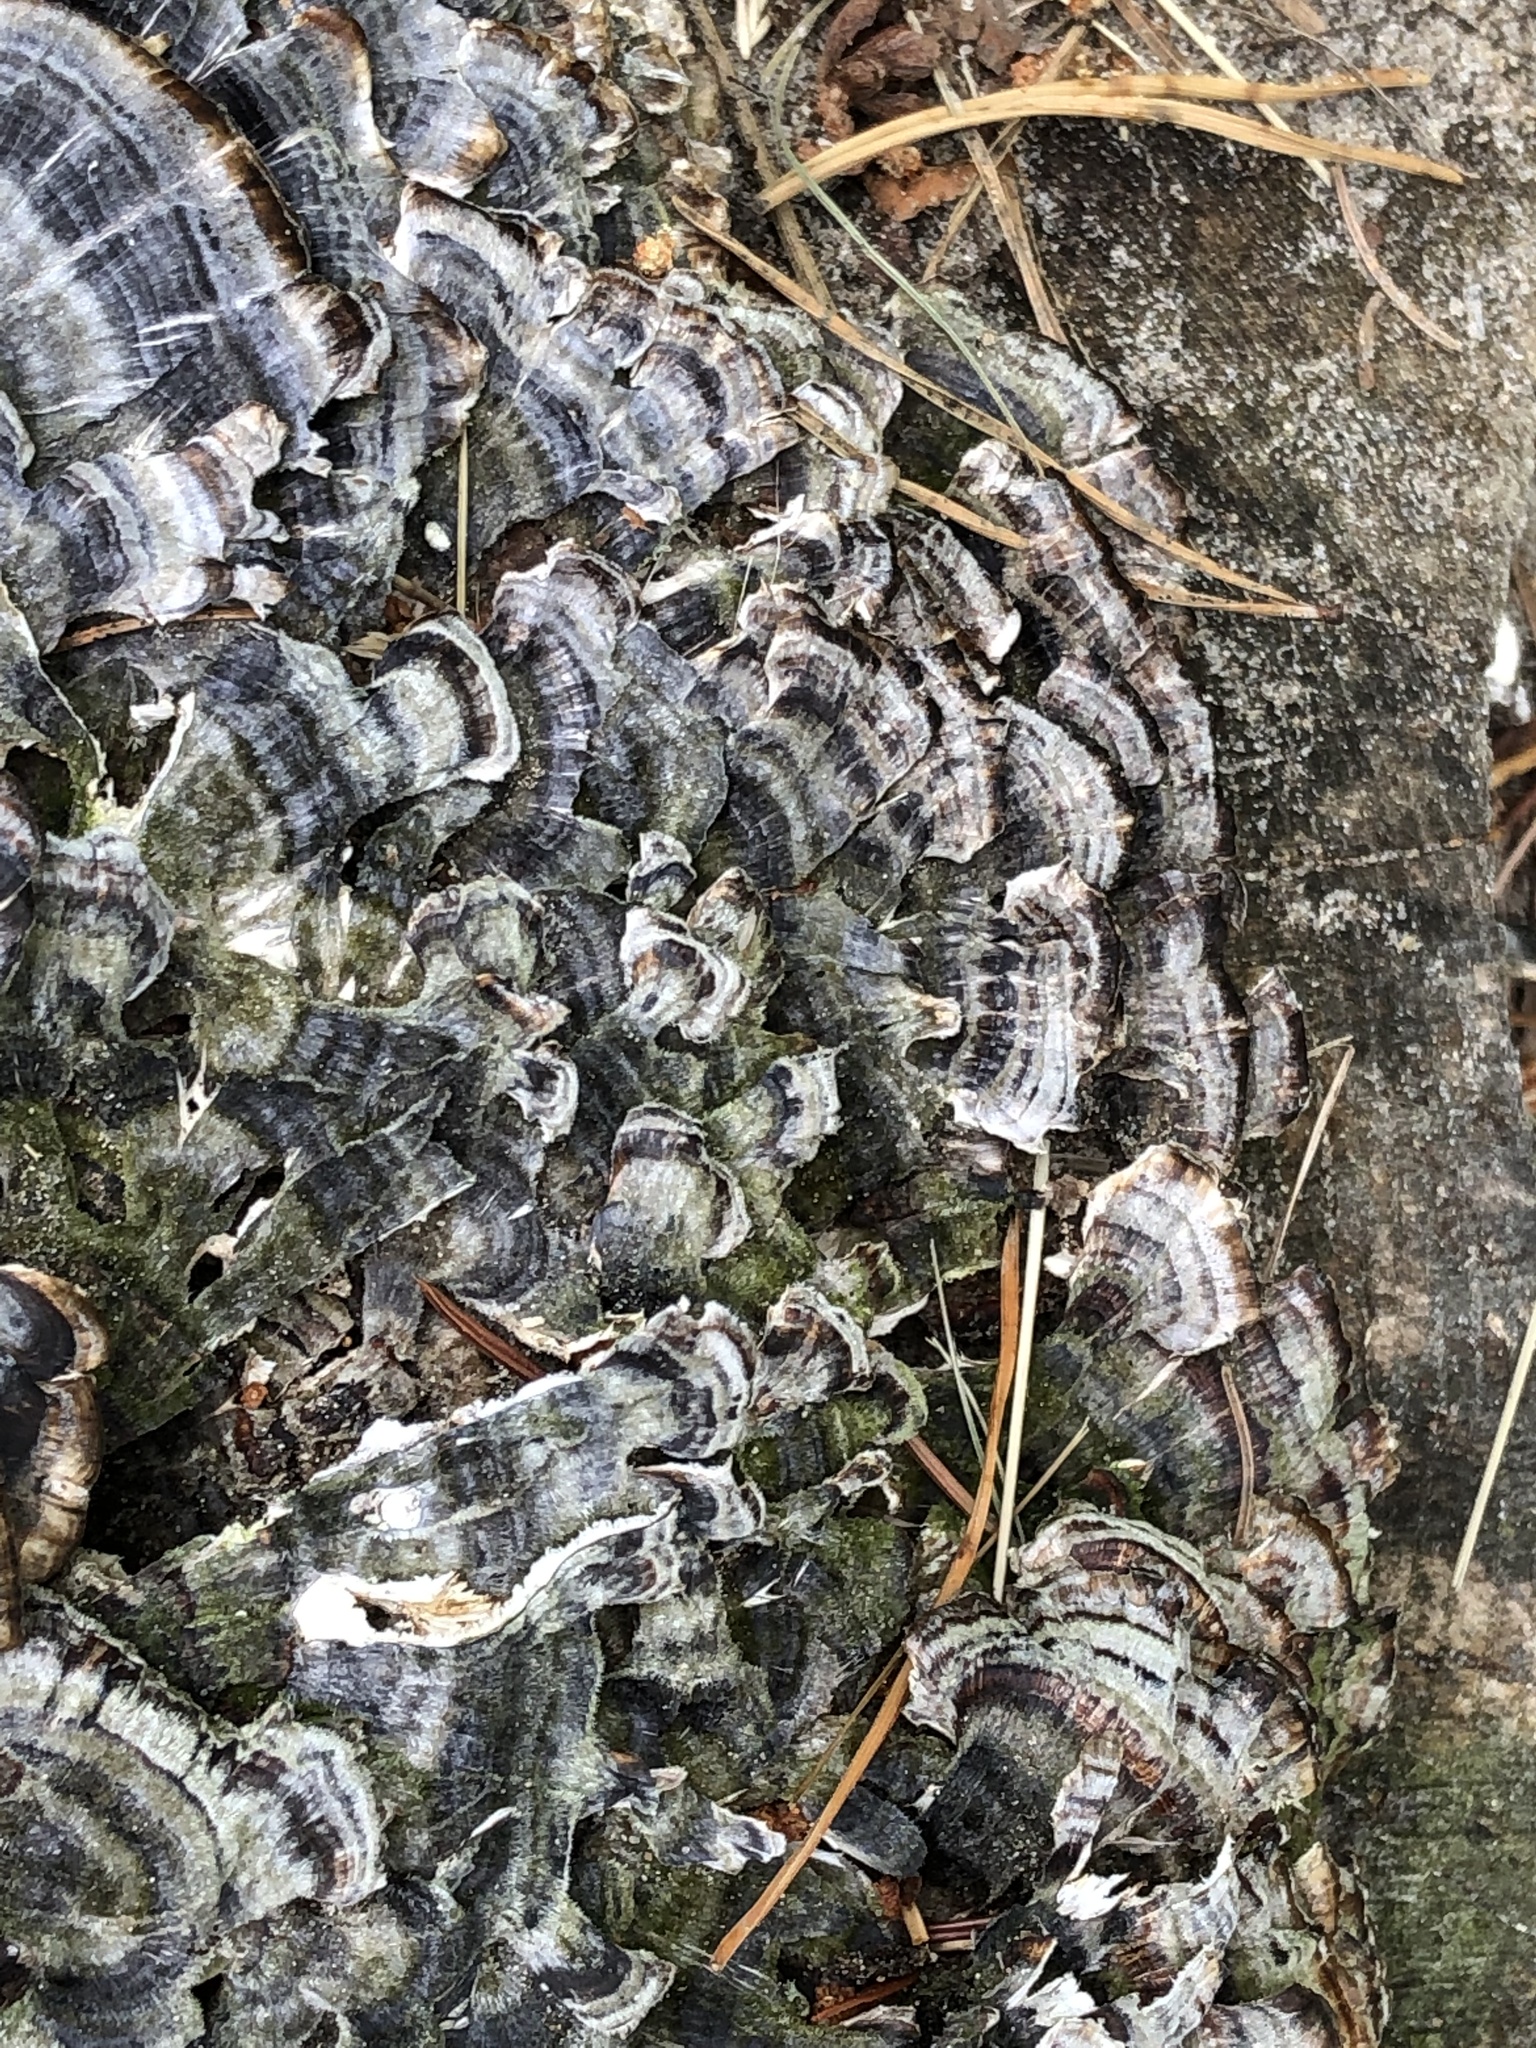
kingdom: Fungi
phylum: Basidiomycota
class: Agaricomycetes
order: Polyporales
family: Polyporaceae
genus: Trametes
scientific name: Trametes versicolor
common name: Turkeytail
